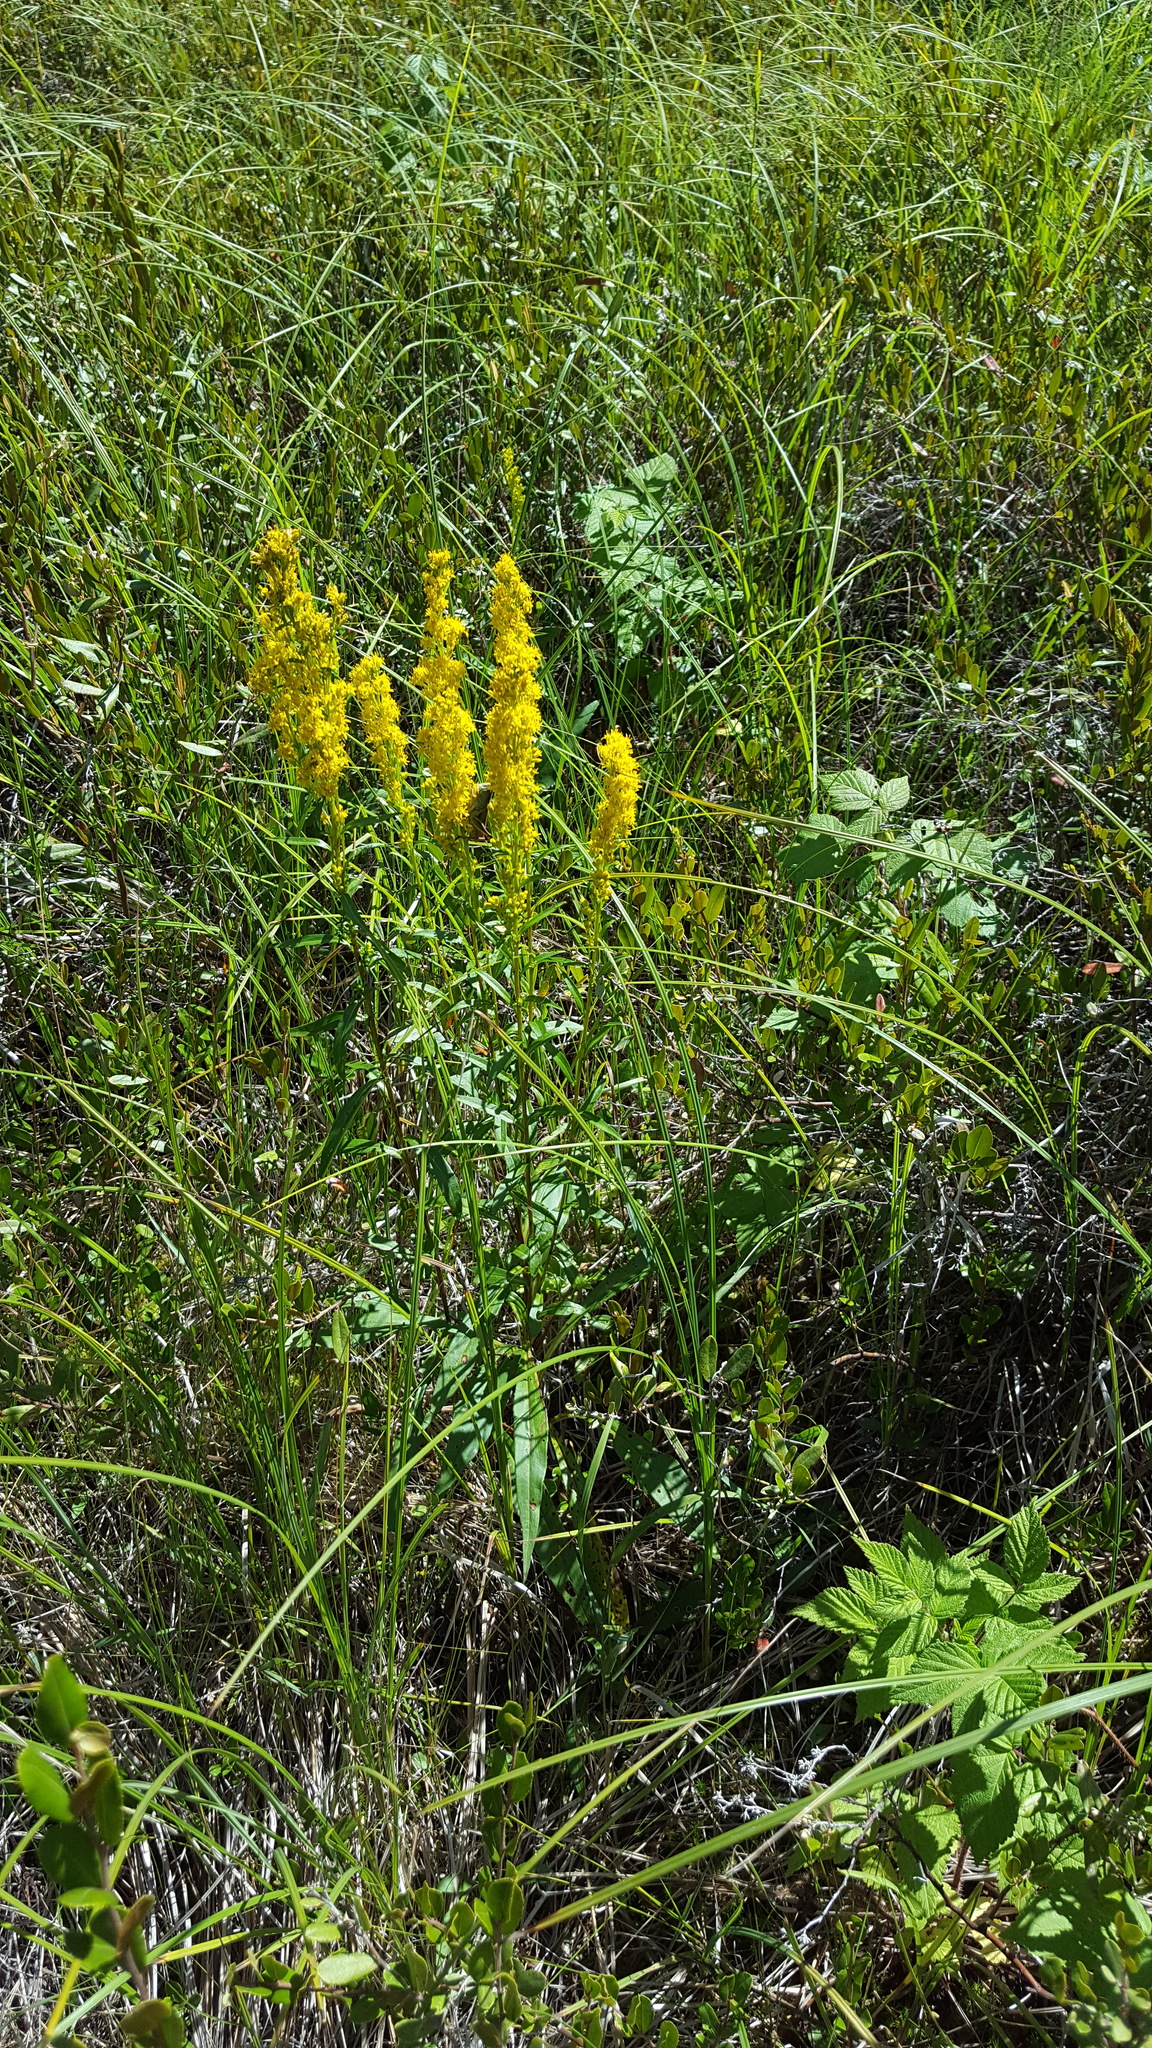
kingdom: Plantae
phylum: Tracheophyta
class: Magnoliopsida
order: Asterales
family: Asteraceae
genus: Solidago
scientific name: Solidago uliginosa
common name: Bog goldenrod
